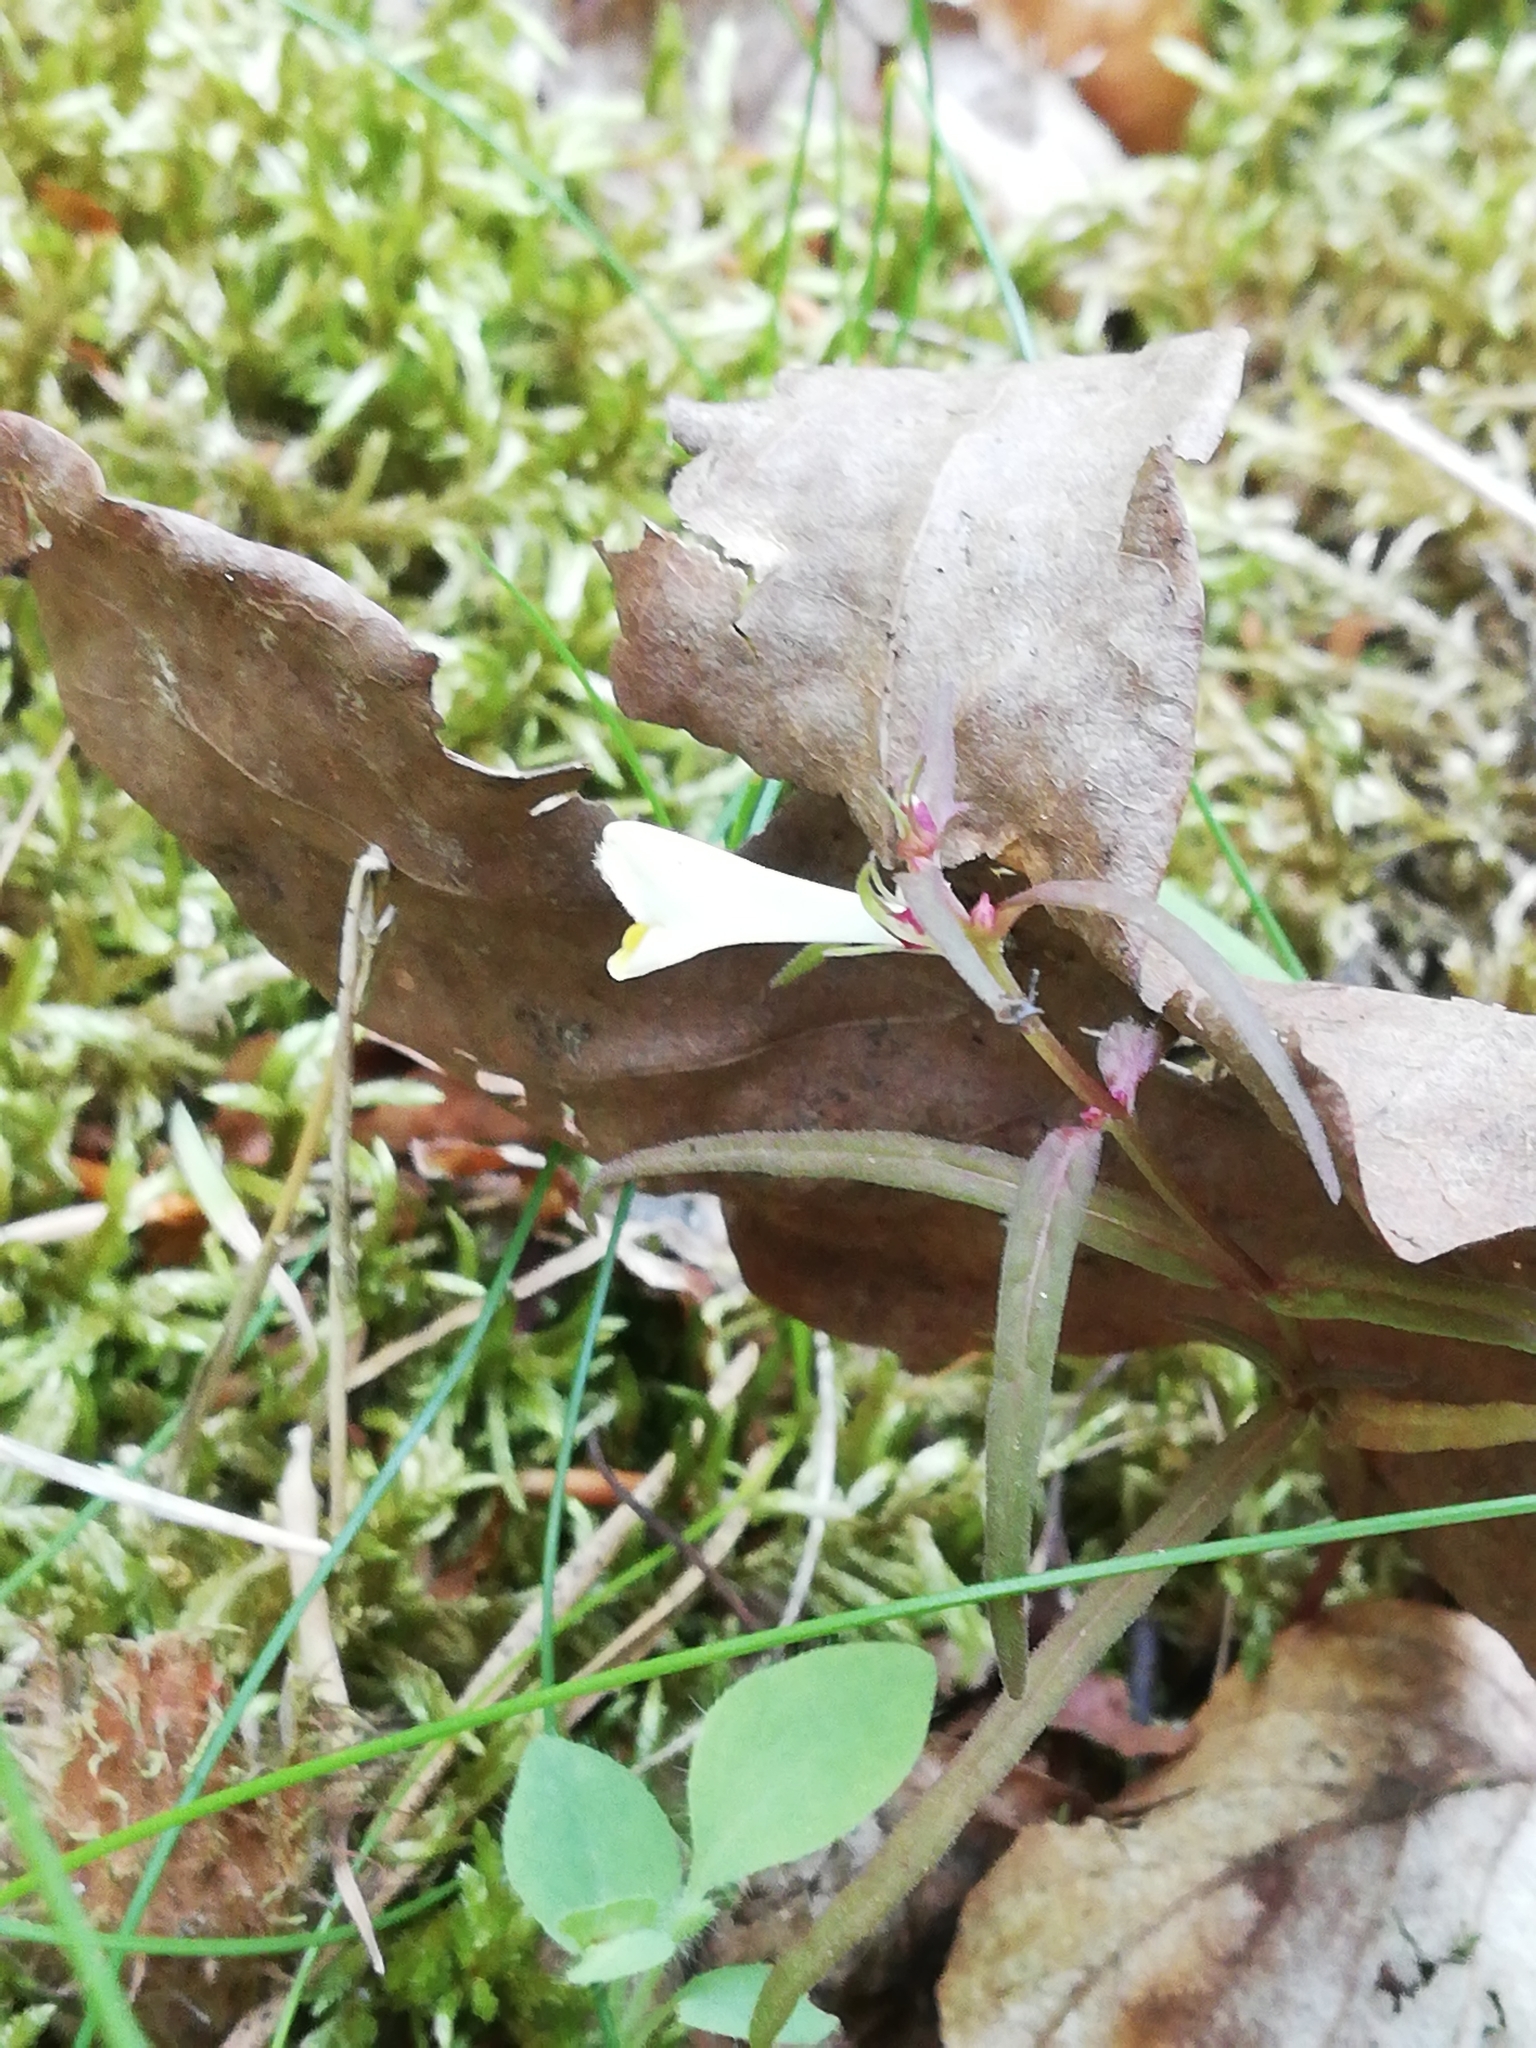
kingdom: Plantae
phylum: Tracheophyta
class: Magnoliopsida
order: Lamiales
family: Orobanchaceae
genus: Melampyrum
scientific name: Melampyrum pratense
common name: Common cow-wheat
